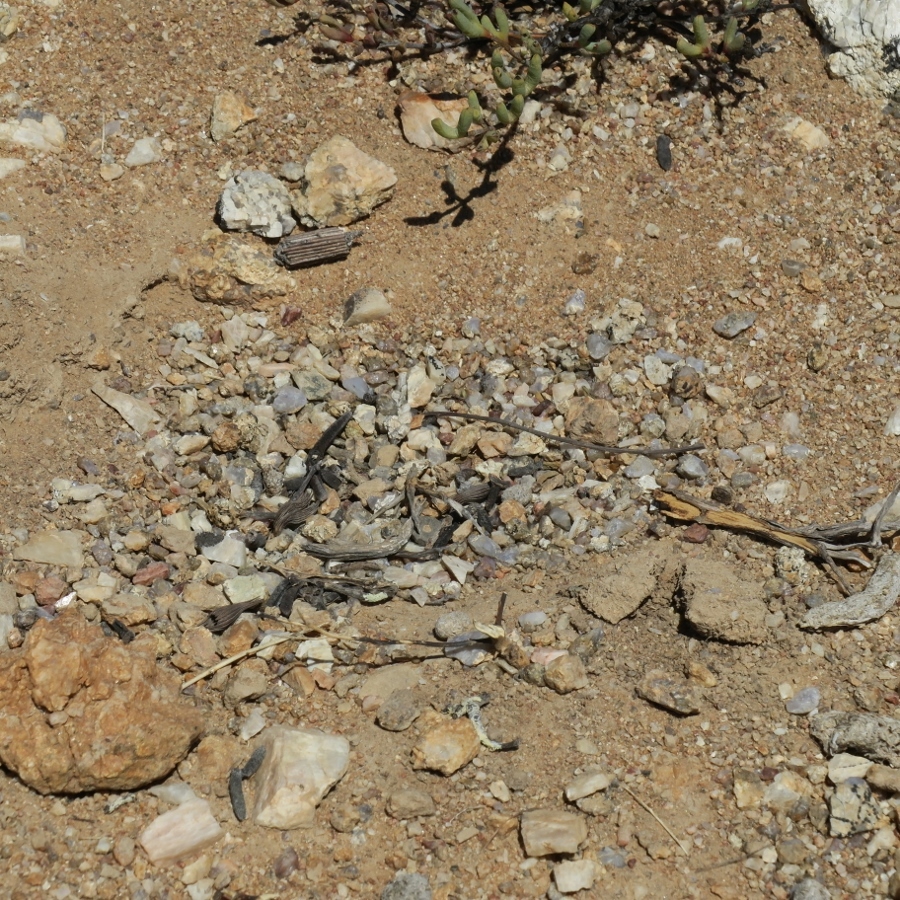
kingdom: Animalia
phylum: Chordata
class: Aves
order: Pteroclidiformes
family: Pteroclididae
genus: Pterocles
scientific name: Pterocles namaqua
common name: Namaqua sandgrouse
